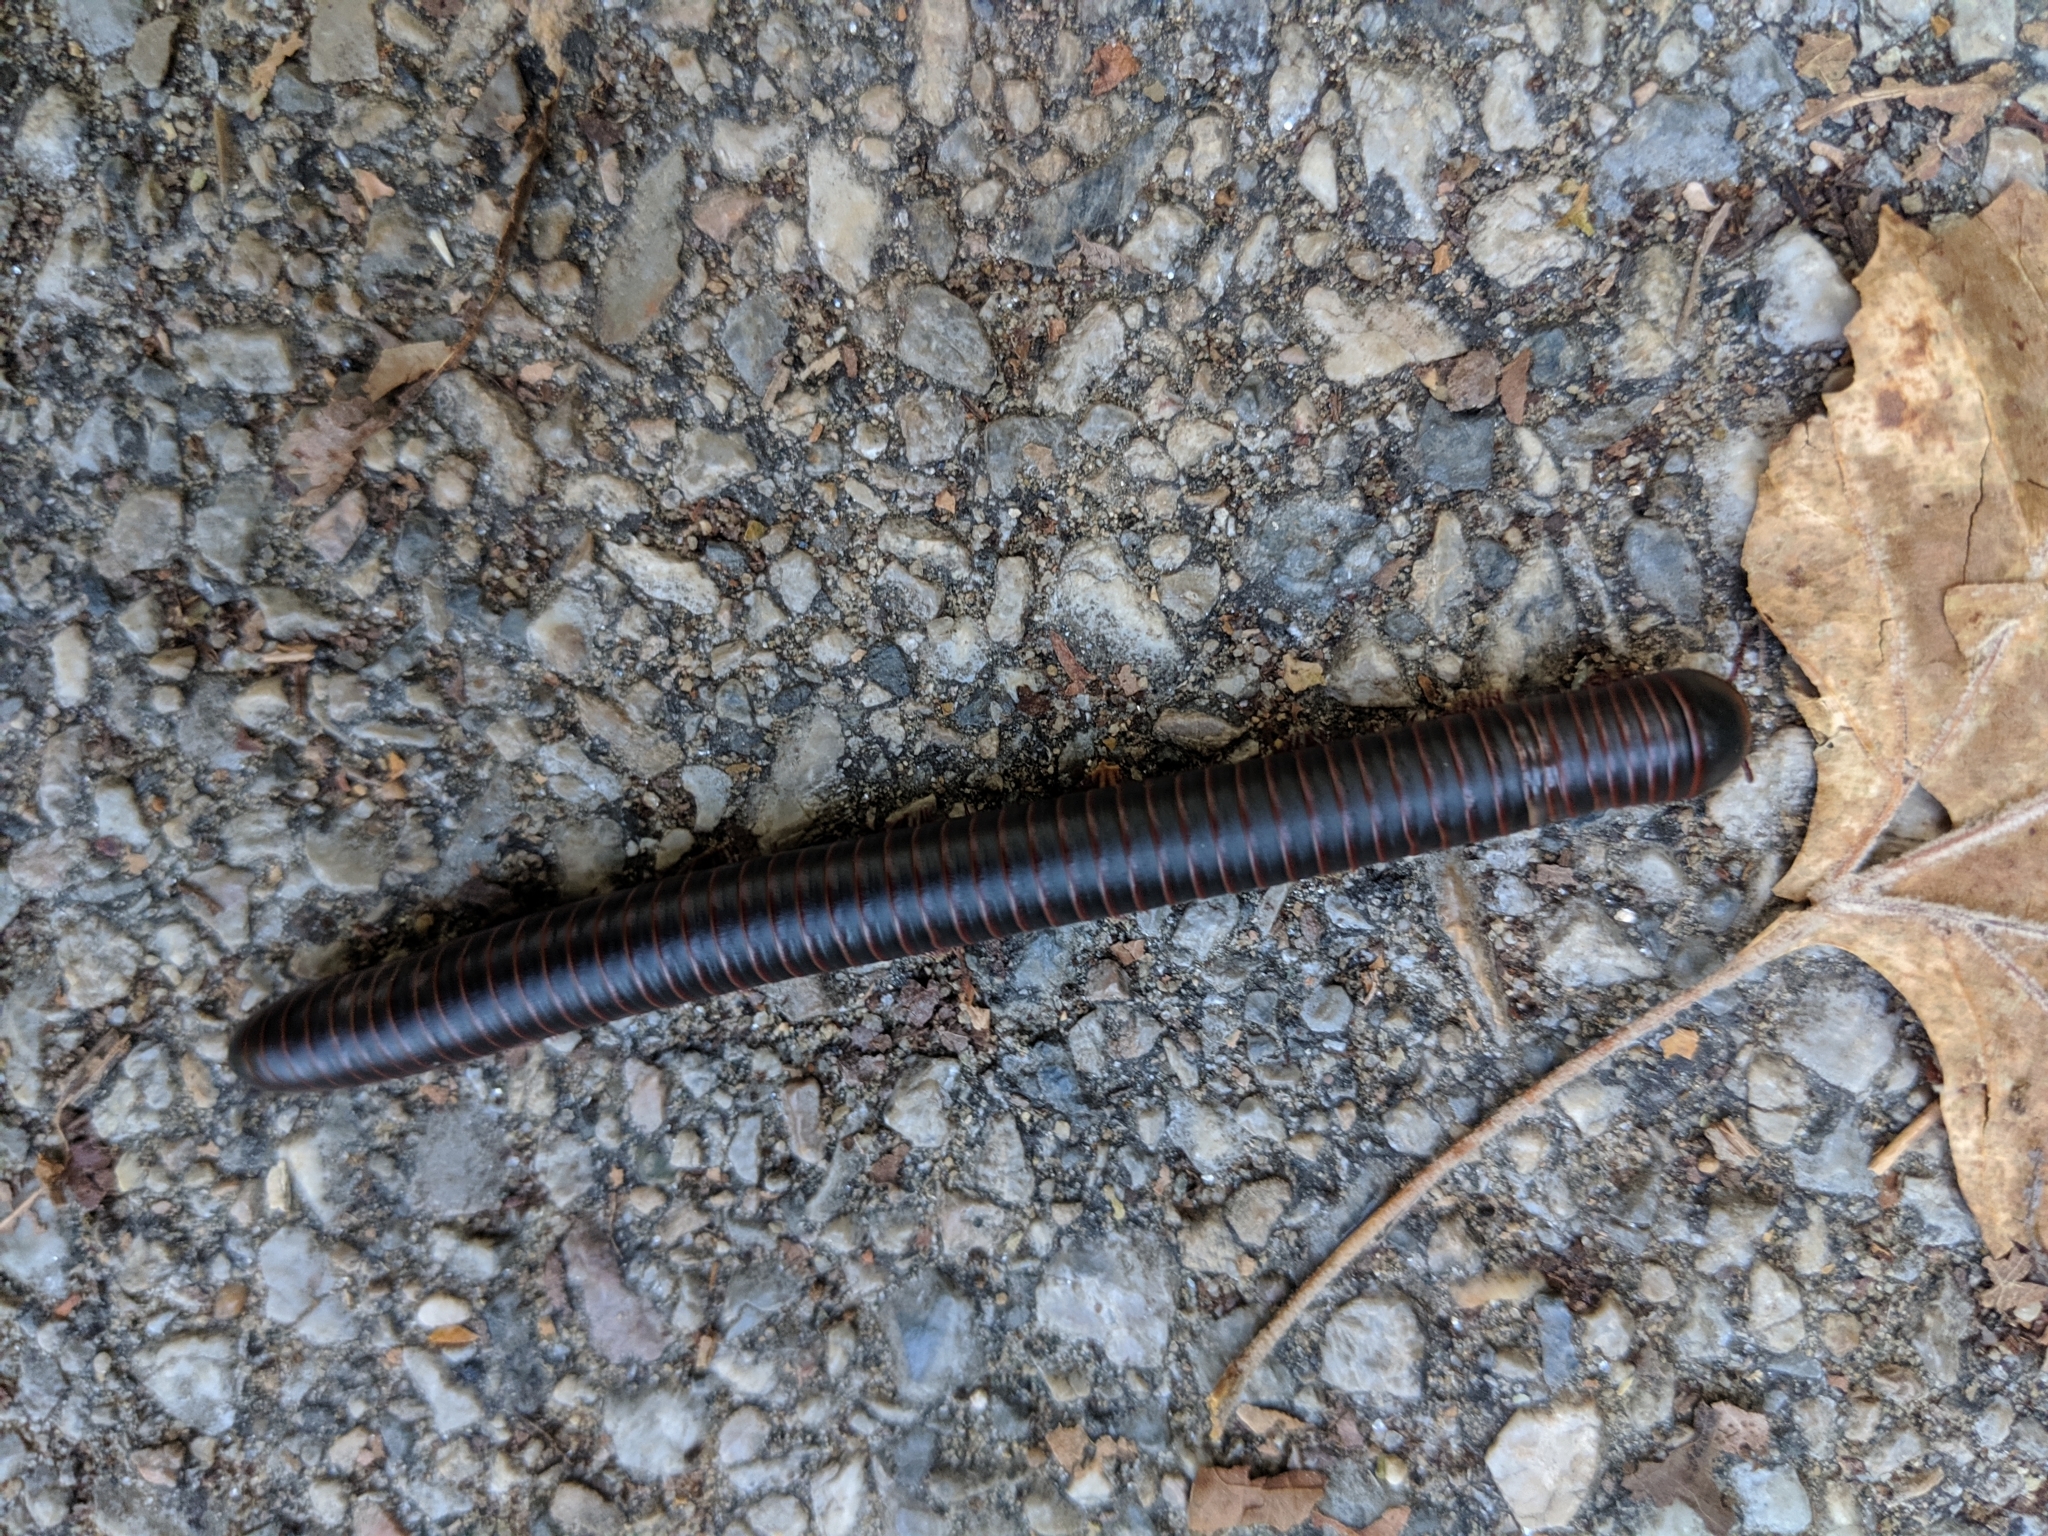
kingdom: Animalia
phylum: Arthropoda
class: Diplopoda
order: Spirobolida
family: Spirobolidae
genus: Narceus
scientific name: Narceus
